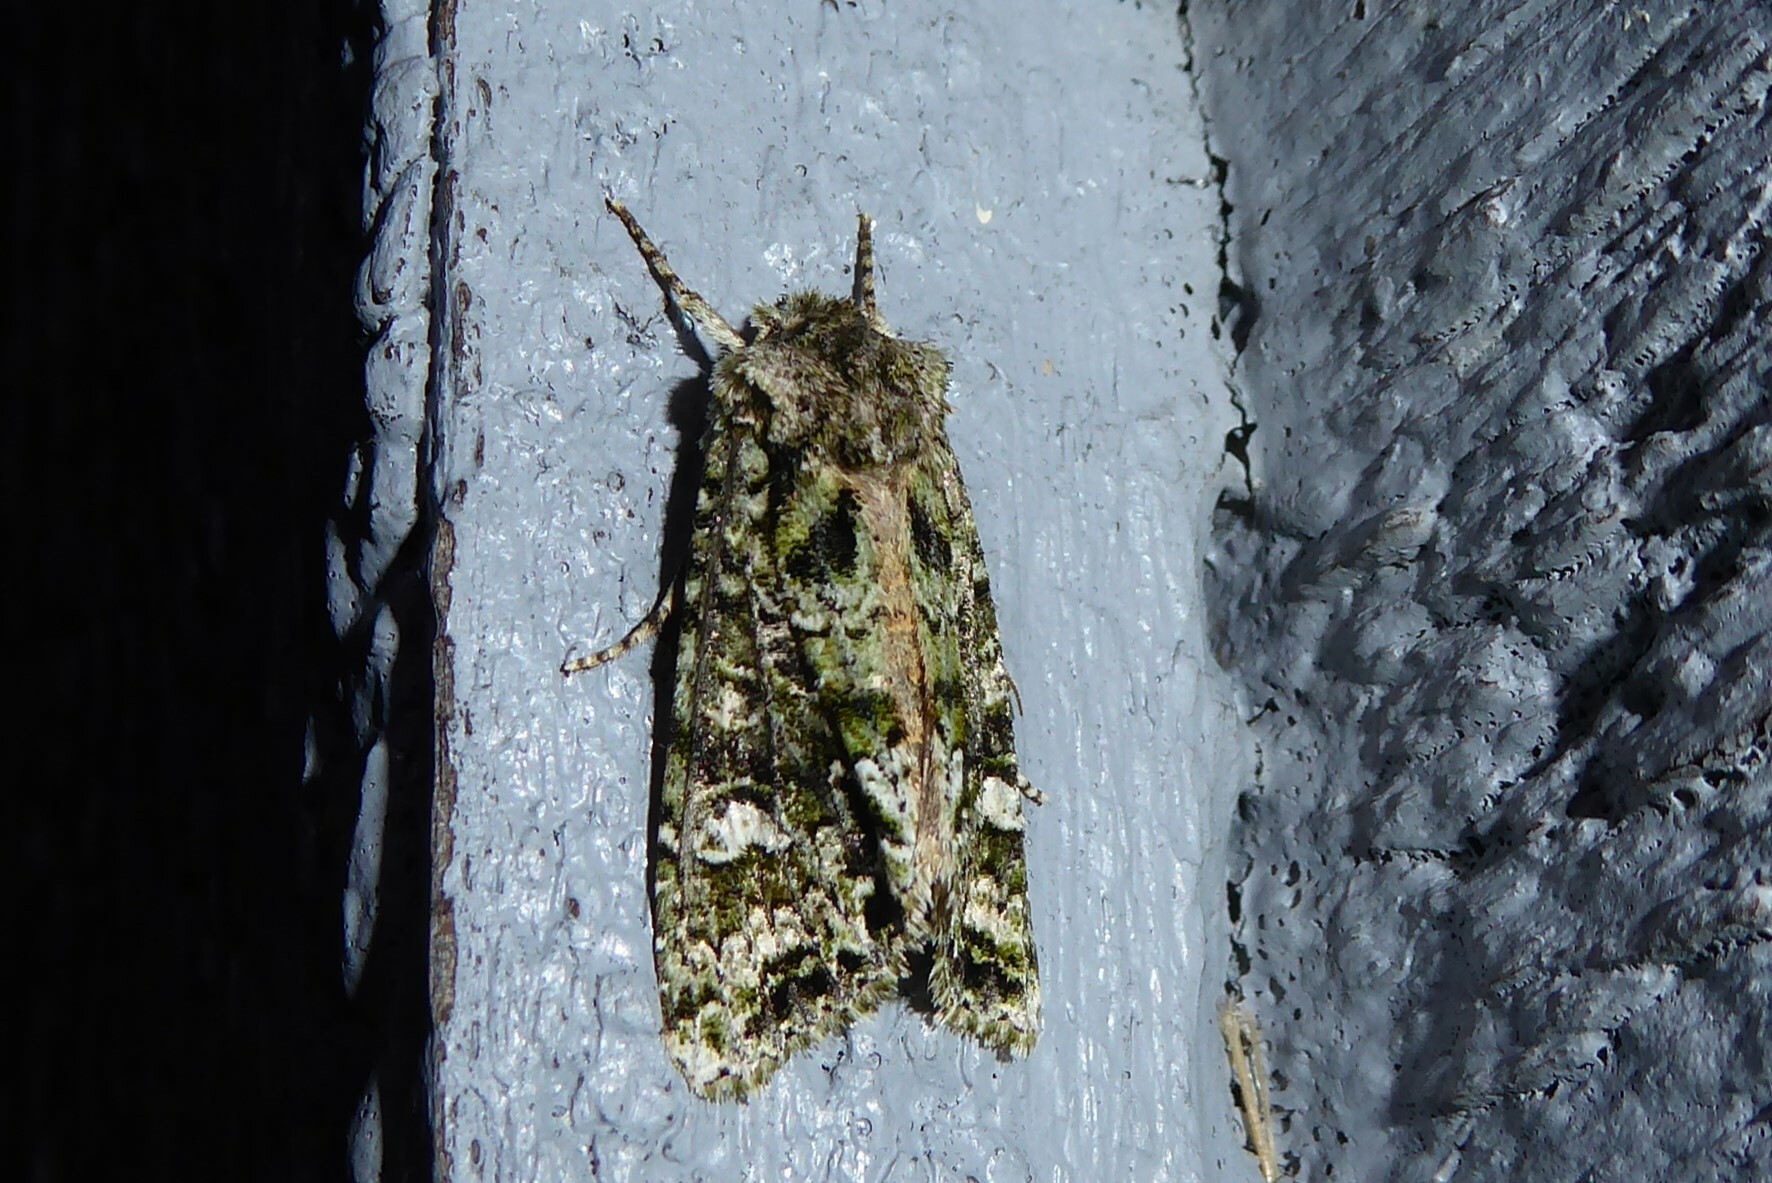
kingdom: Animalia
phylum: Arthropoda
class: Insecta
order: Lepidoptera
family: Noctuidae
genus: Ichneutica
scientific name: Ichneutica
